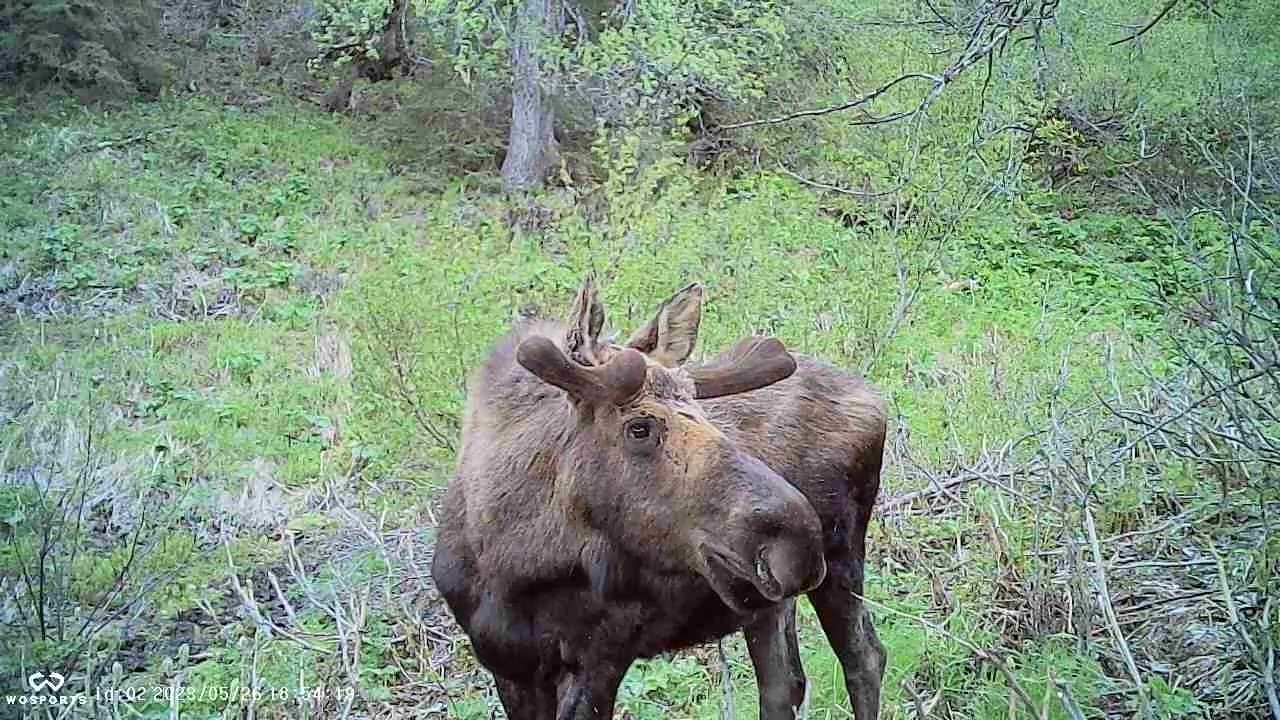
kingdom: Animalia
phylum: Chordata
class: Mammalia
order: Artiodactyla
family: Cervidae
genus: Alces
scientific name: Alces alces
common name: Moose
